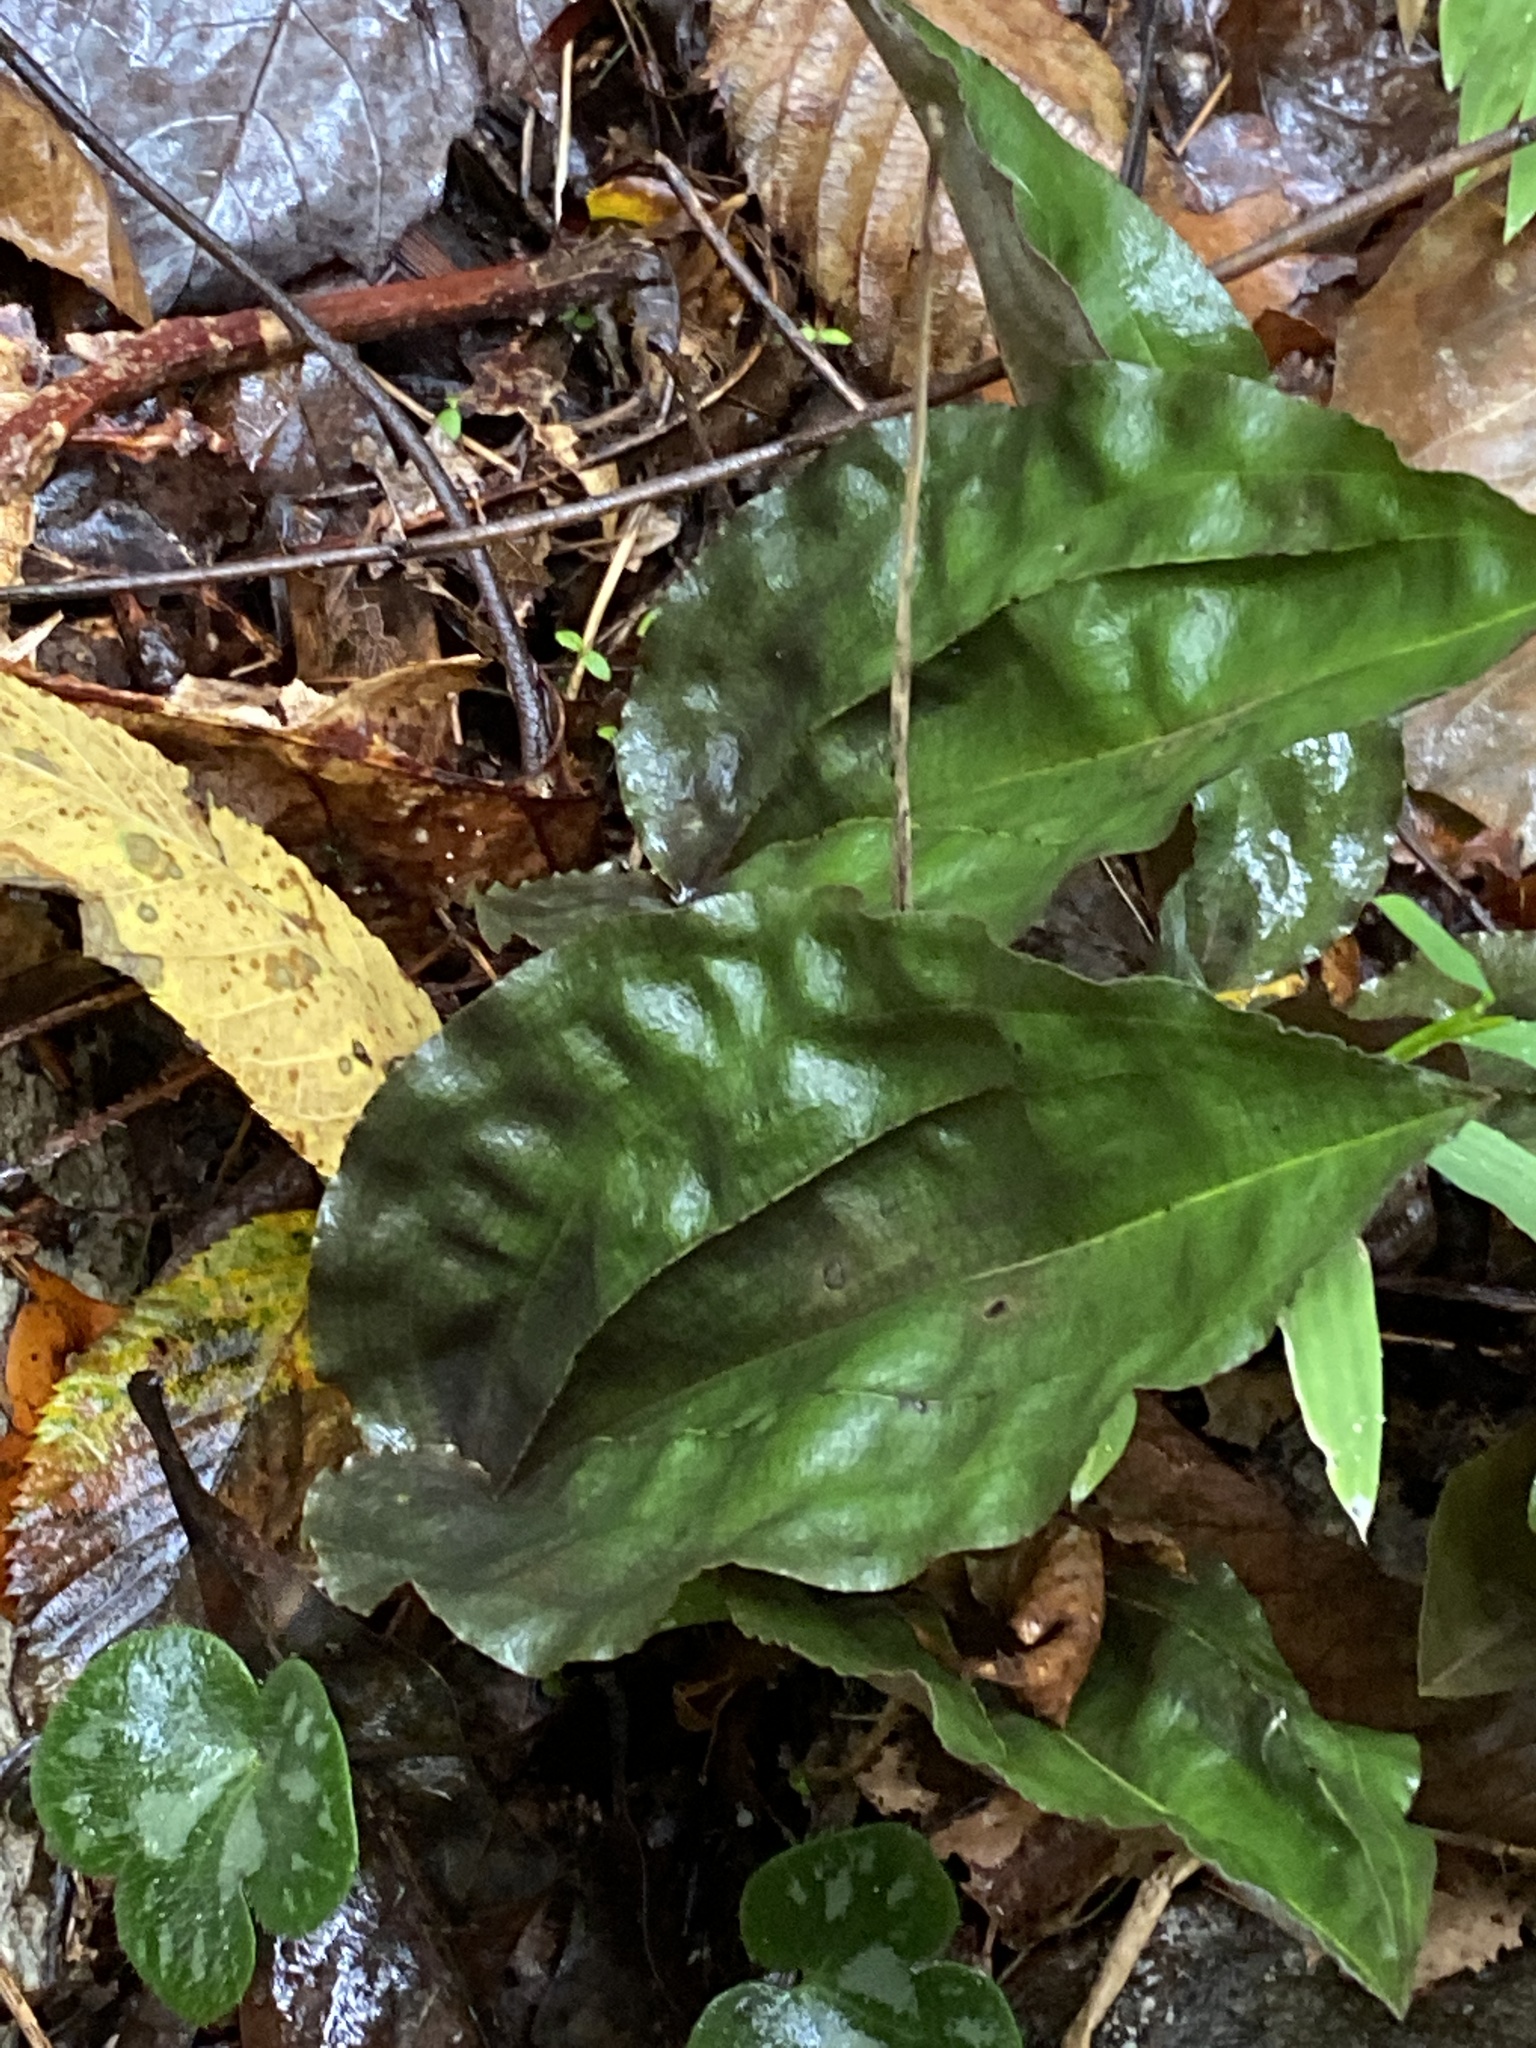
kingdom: Plantae
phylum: Tracheophyta
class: Liliopsida
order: Asparagales
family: Orchidaceae
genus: Tipularia
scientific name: Tipularia discolor
